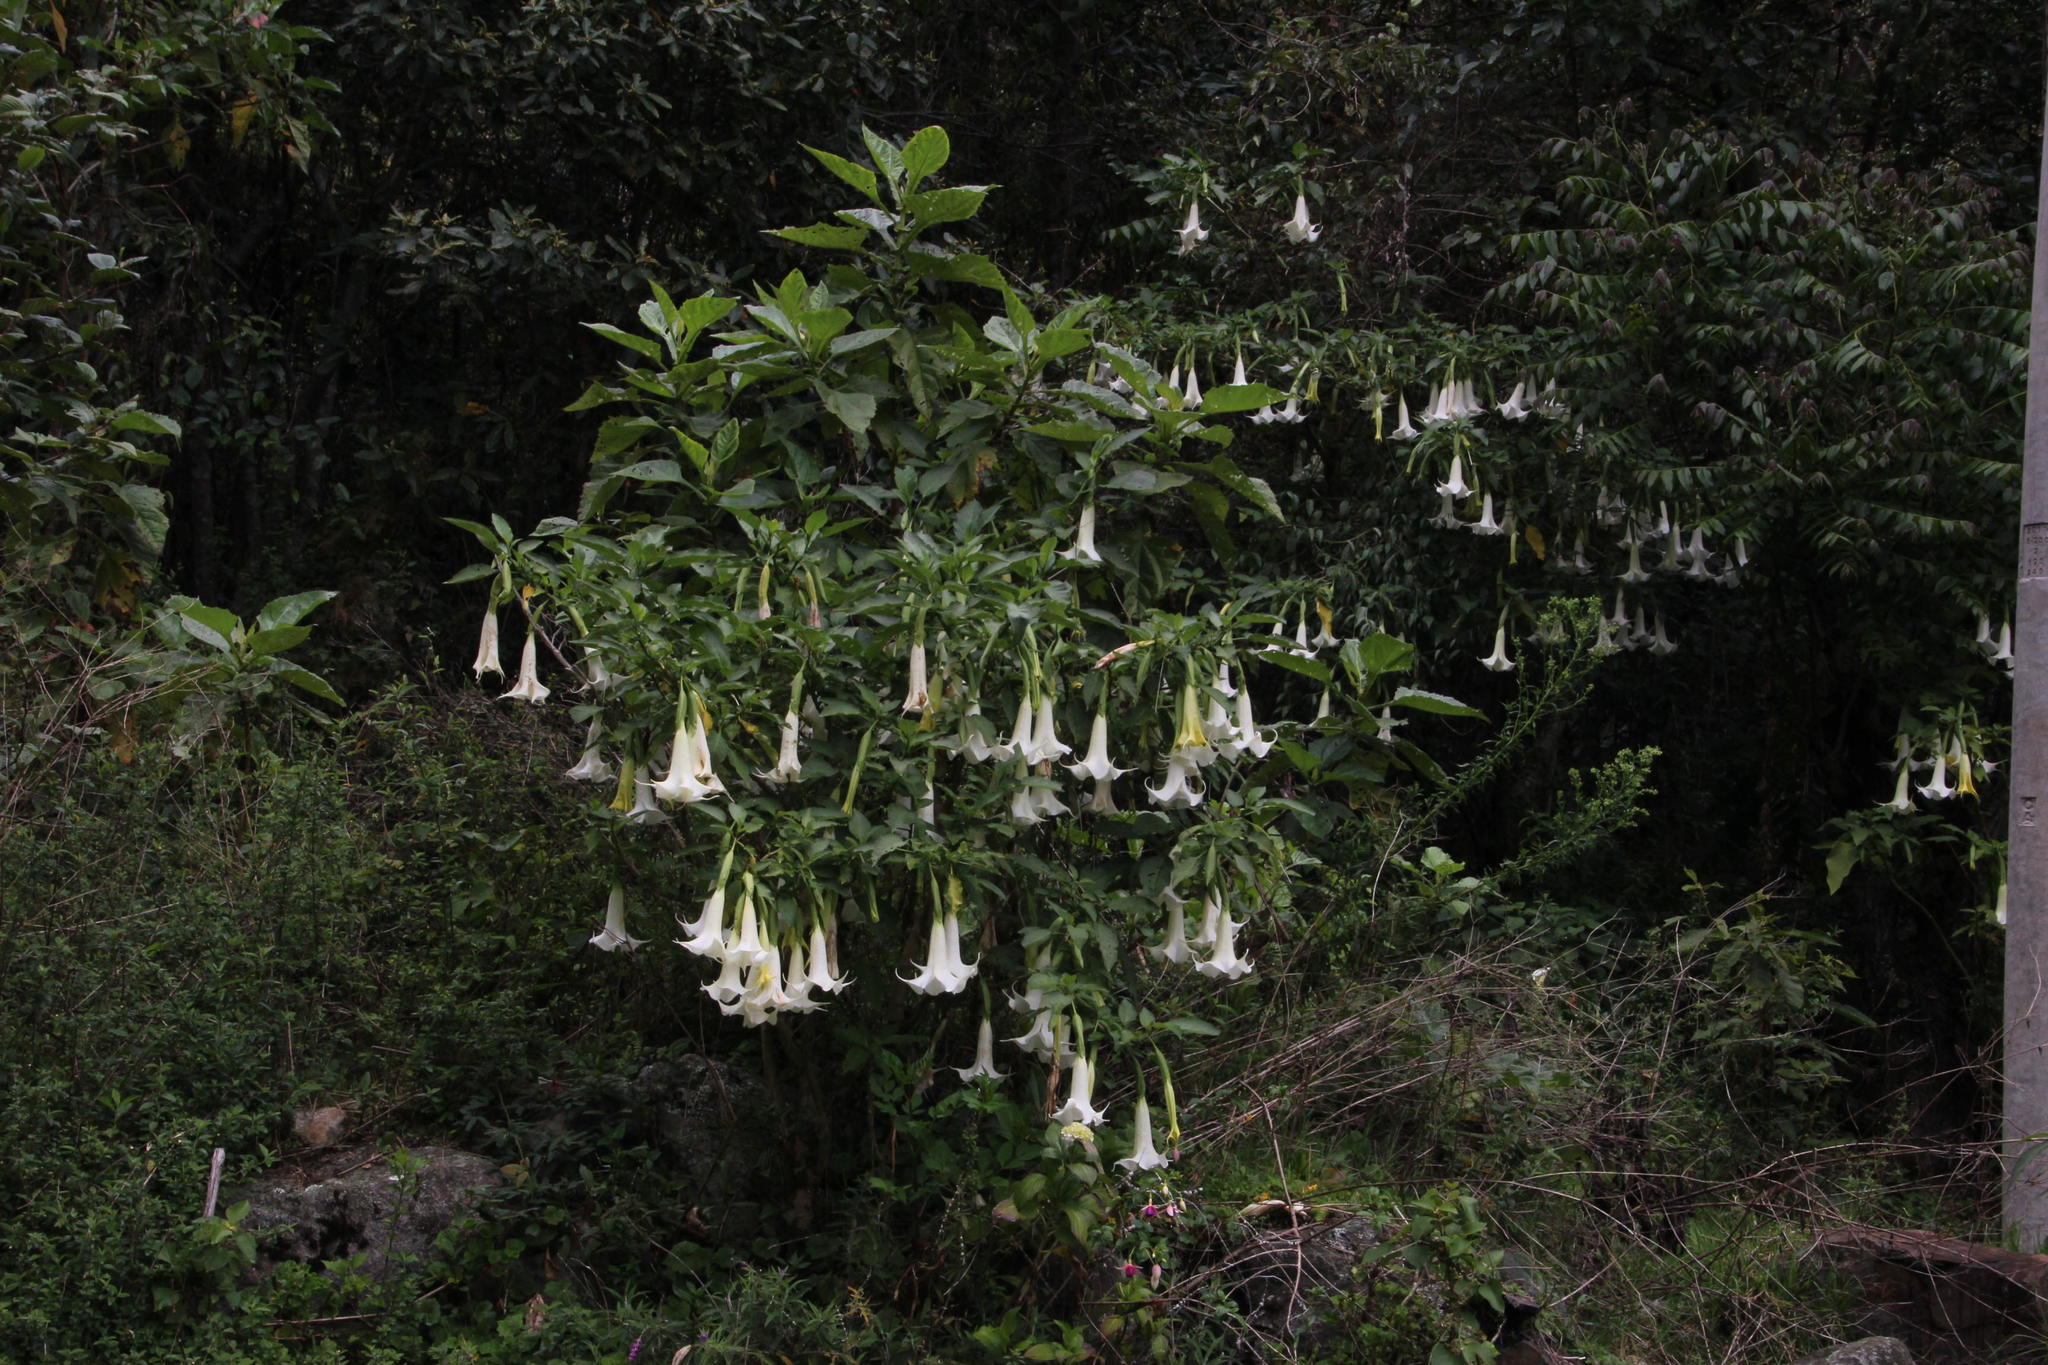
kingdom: Plantae
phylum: Tracheophyta
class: Magnoliopsida
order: Solanales
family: Solanaceae
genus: Brugmansia
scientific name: Brugmansia arborea
